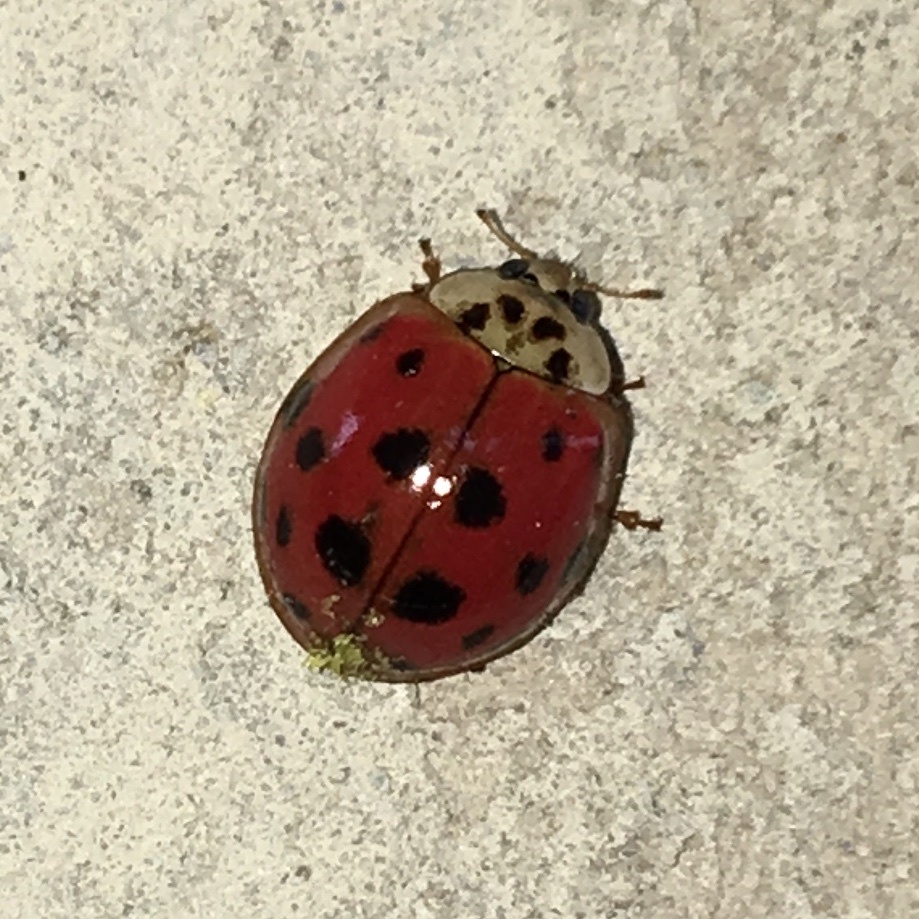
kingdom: Animalia
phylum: Arthropoda
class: Insecta
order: Coleoptera
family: Coccinellidae
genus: Harmonia
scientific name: Harmonia axyridis
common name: Harlequin ladybird
